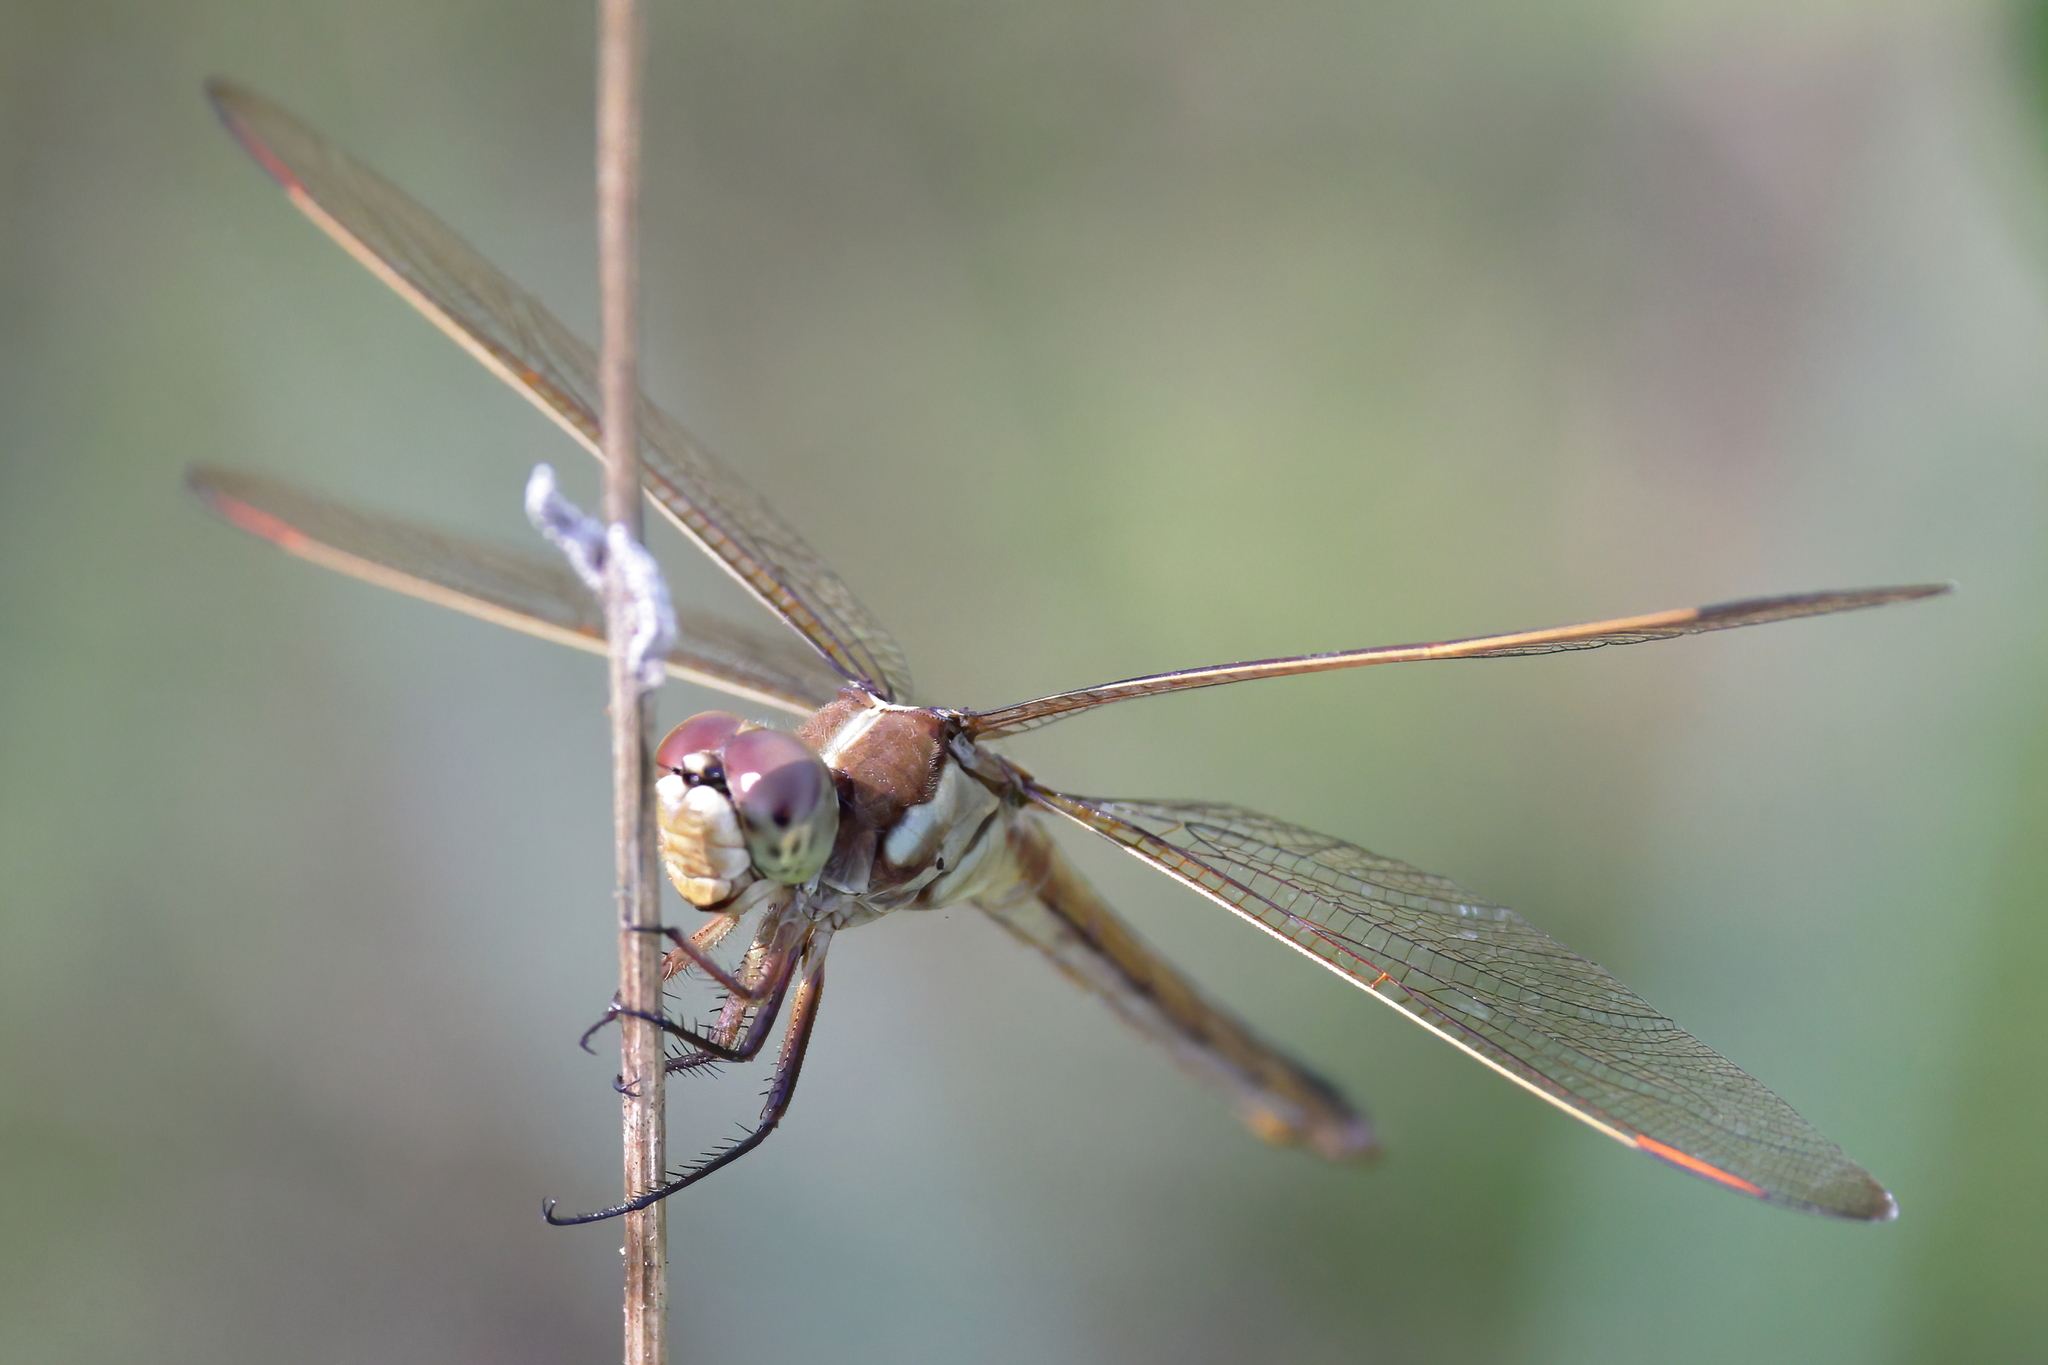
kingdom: Animalia
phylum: Arthropoda
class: Insecta
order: Odonata
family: Libellulidae
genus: Libellula
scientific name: Libellula auripennis
